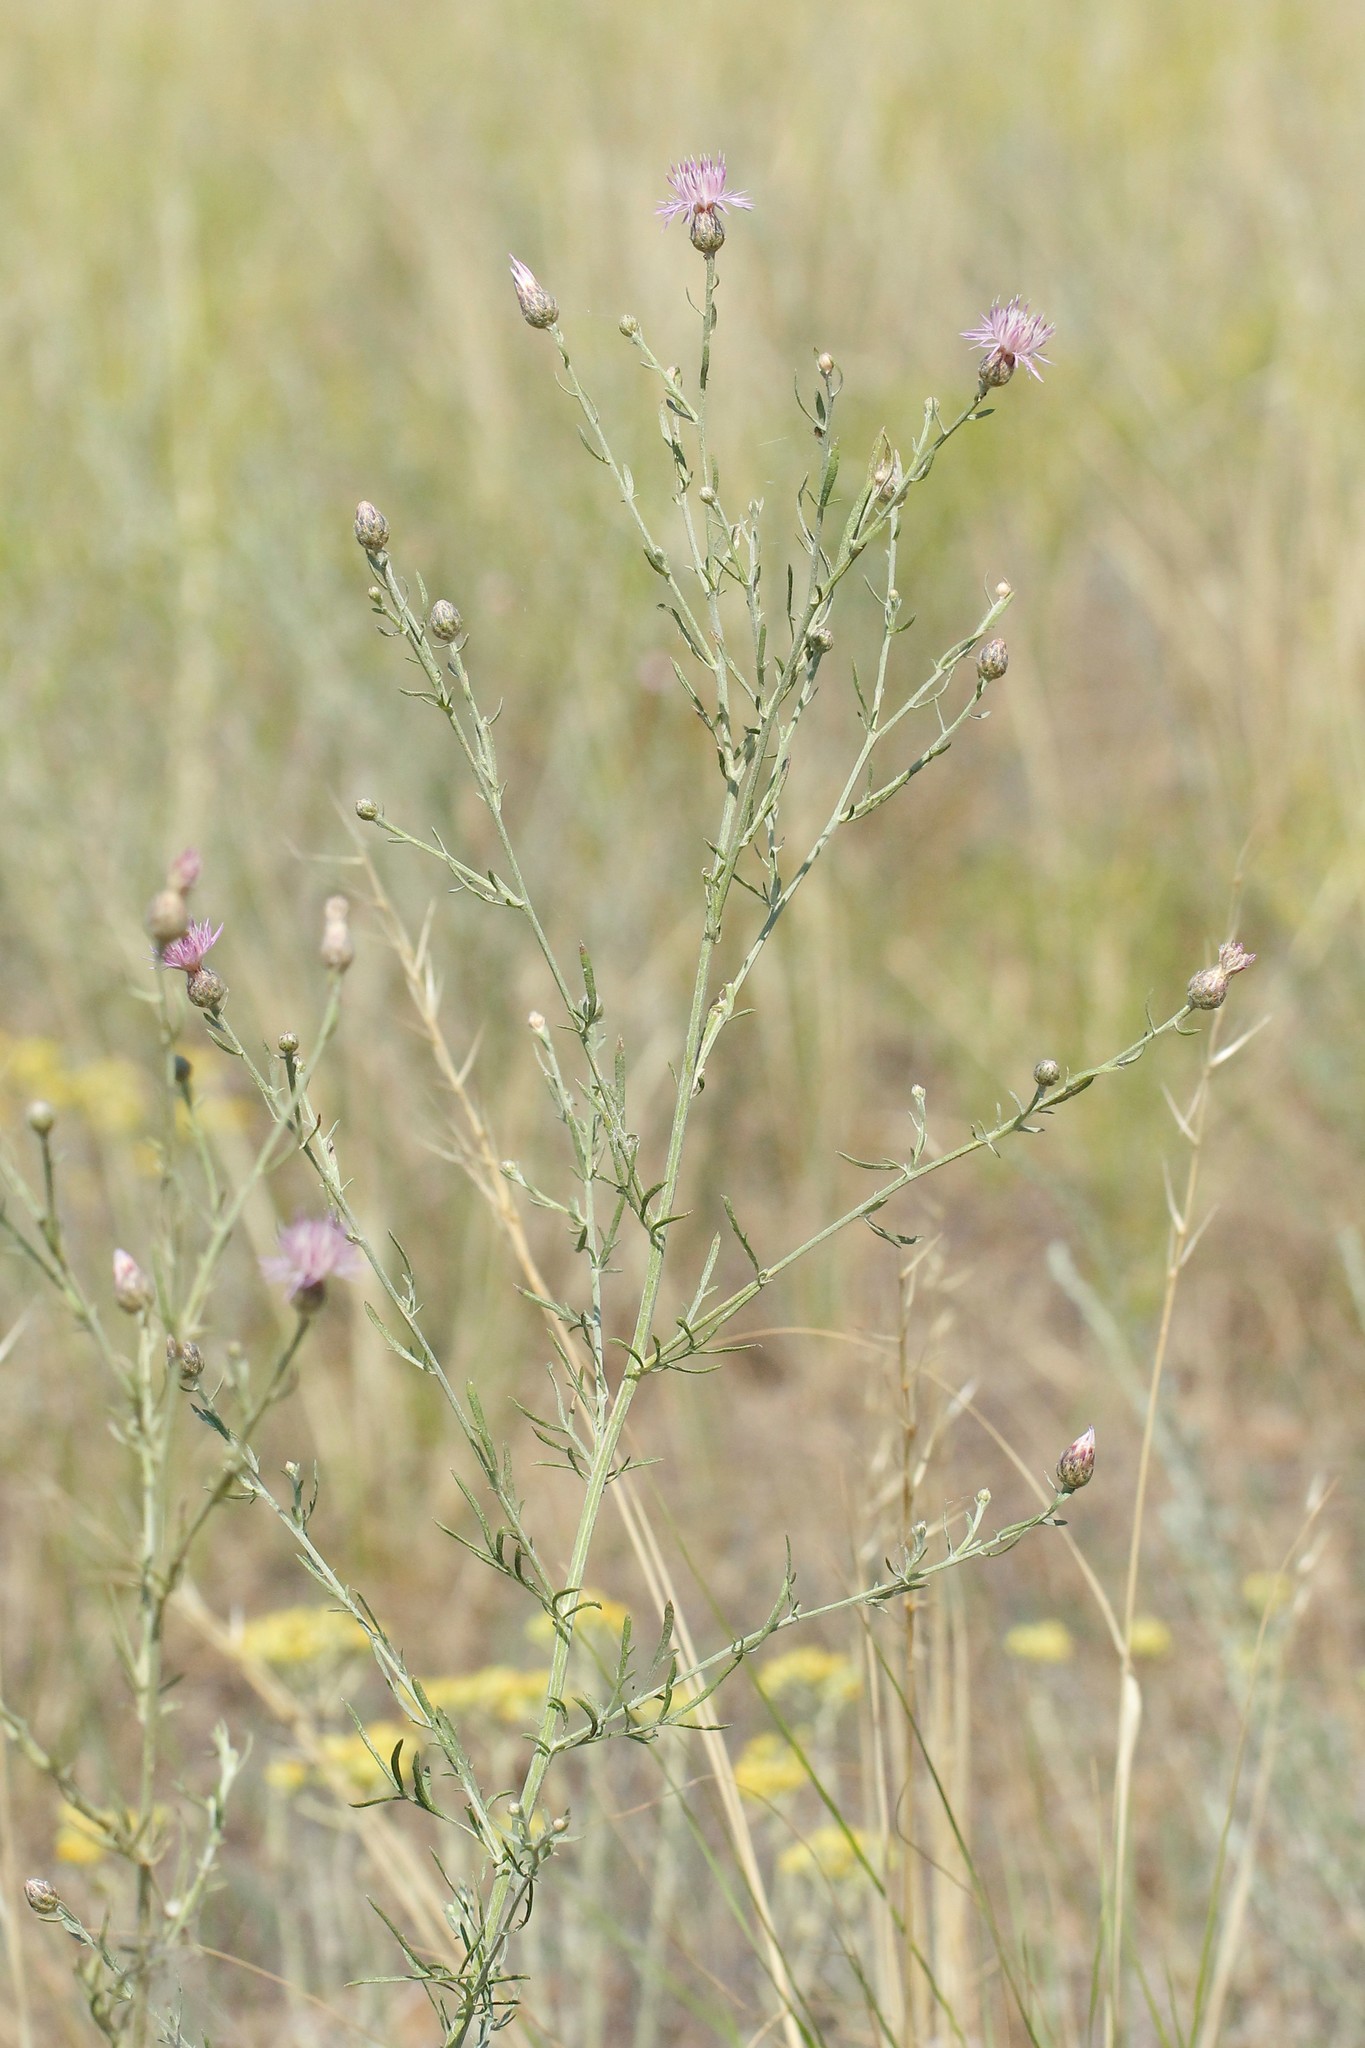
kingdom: Plantae
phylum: Tracheophyta
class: Magnoliopsida
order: Asterales
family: Asteraceae
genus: Centaurea
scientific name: Centaurea arenaria
